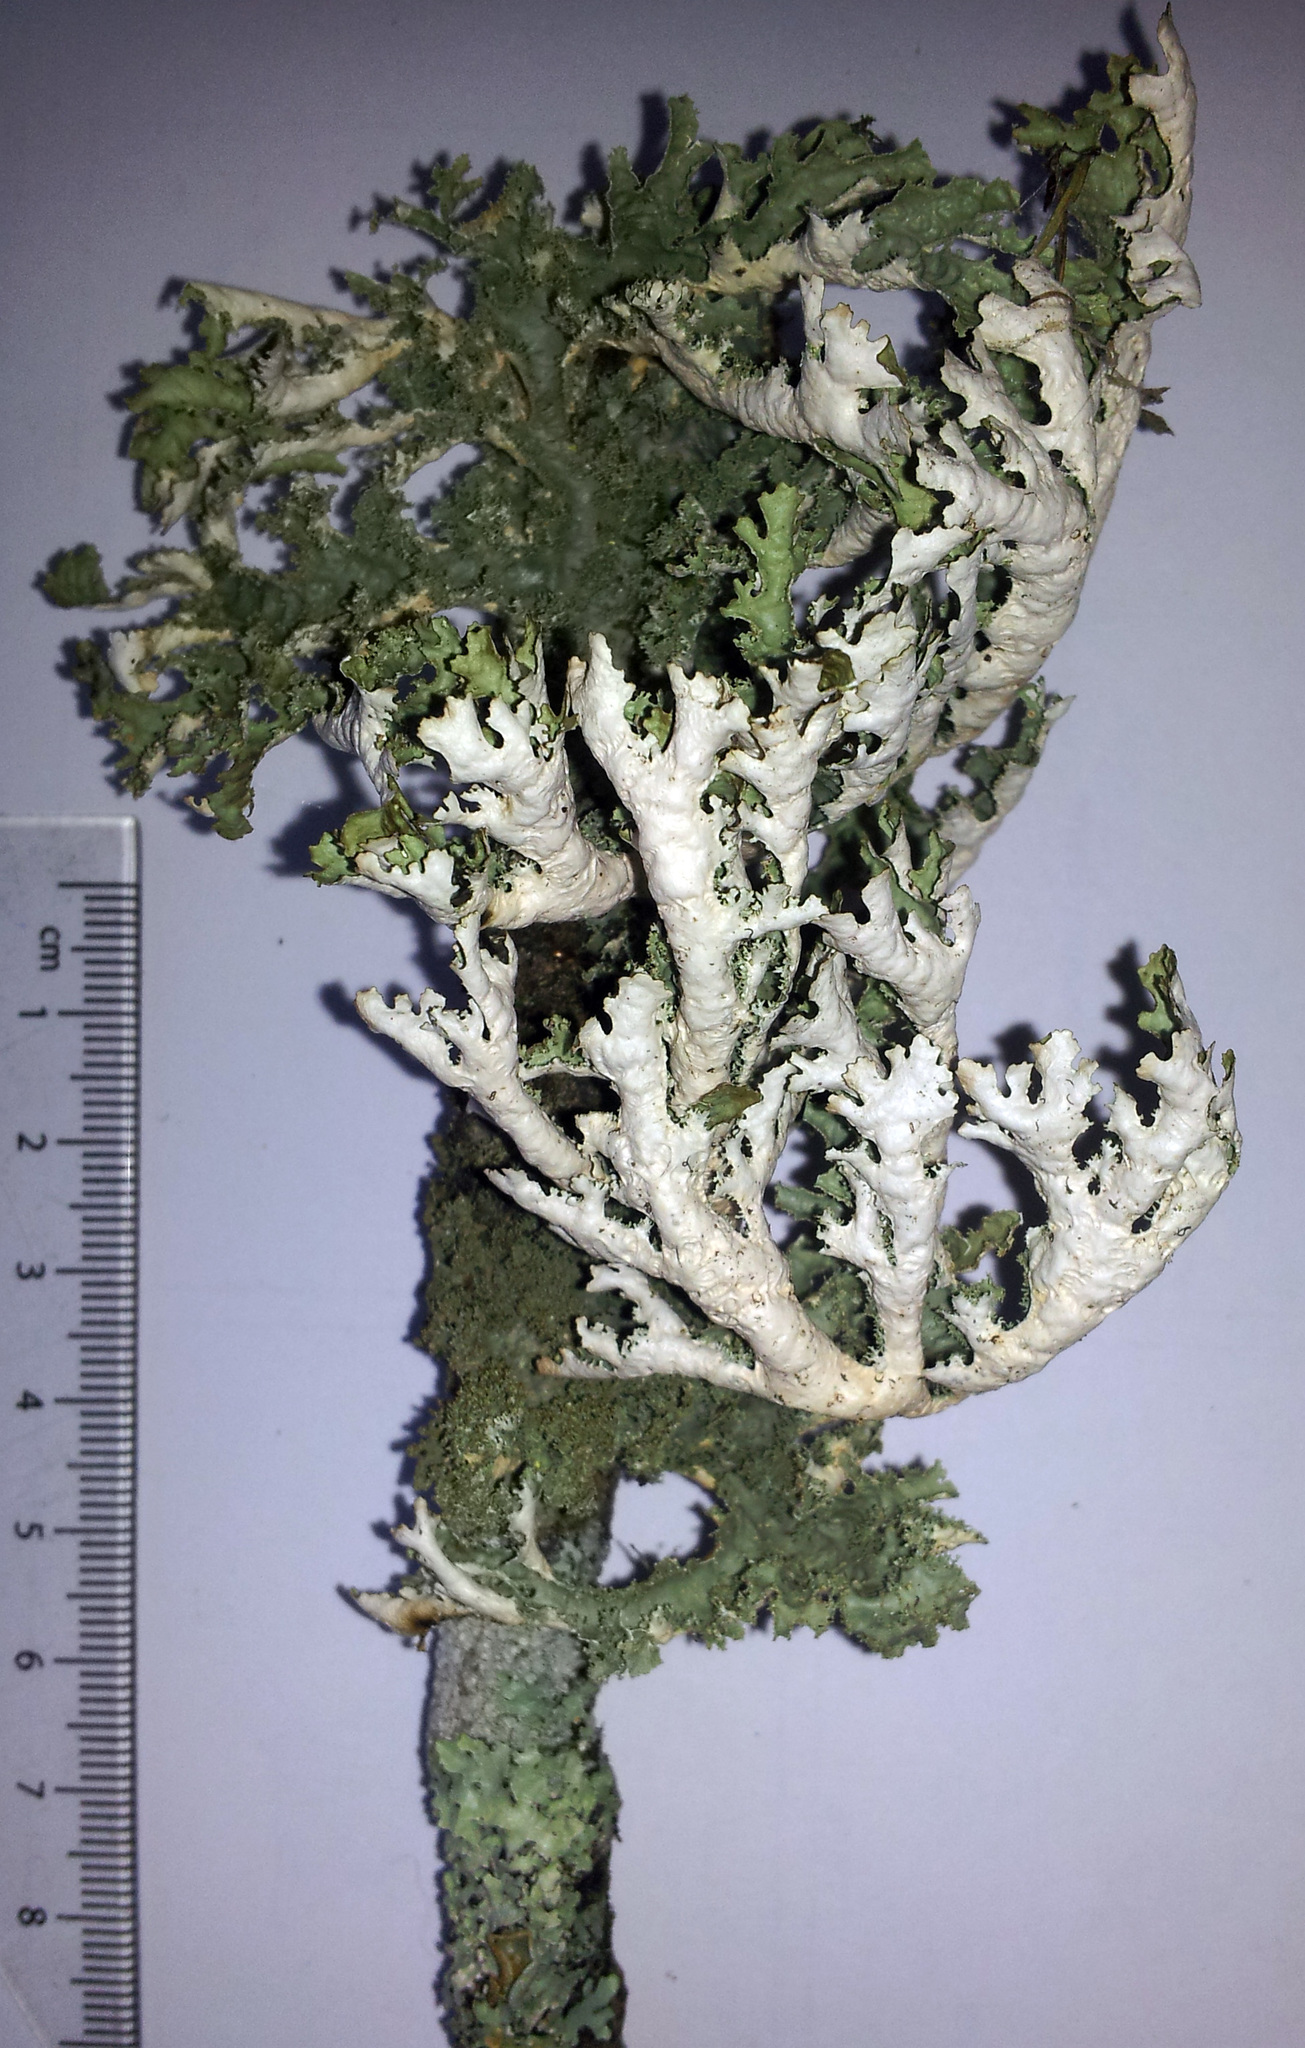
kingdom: Fungi
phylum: Ascomycota
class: Lecanoromycetes
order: Peltigerales
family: Lobariaceae
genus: Pseudocyphellaria
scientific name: Pseudocyphellaria chloroleuca
